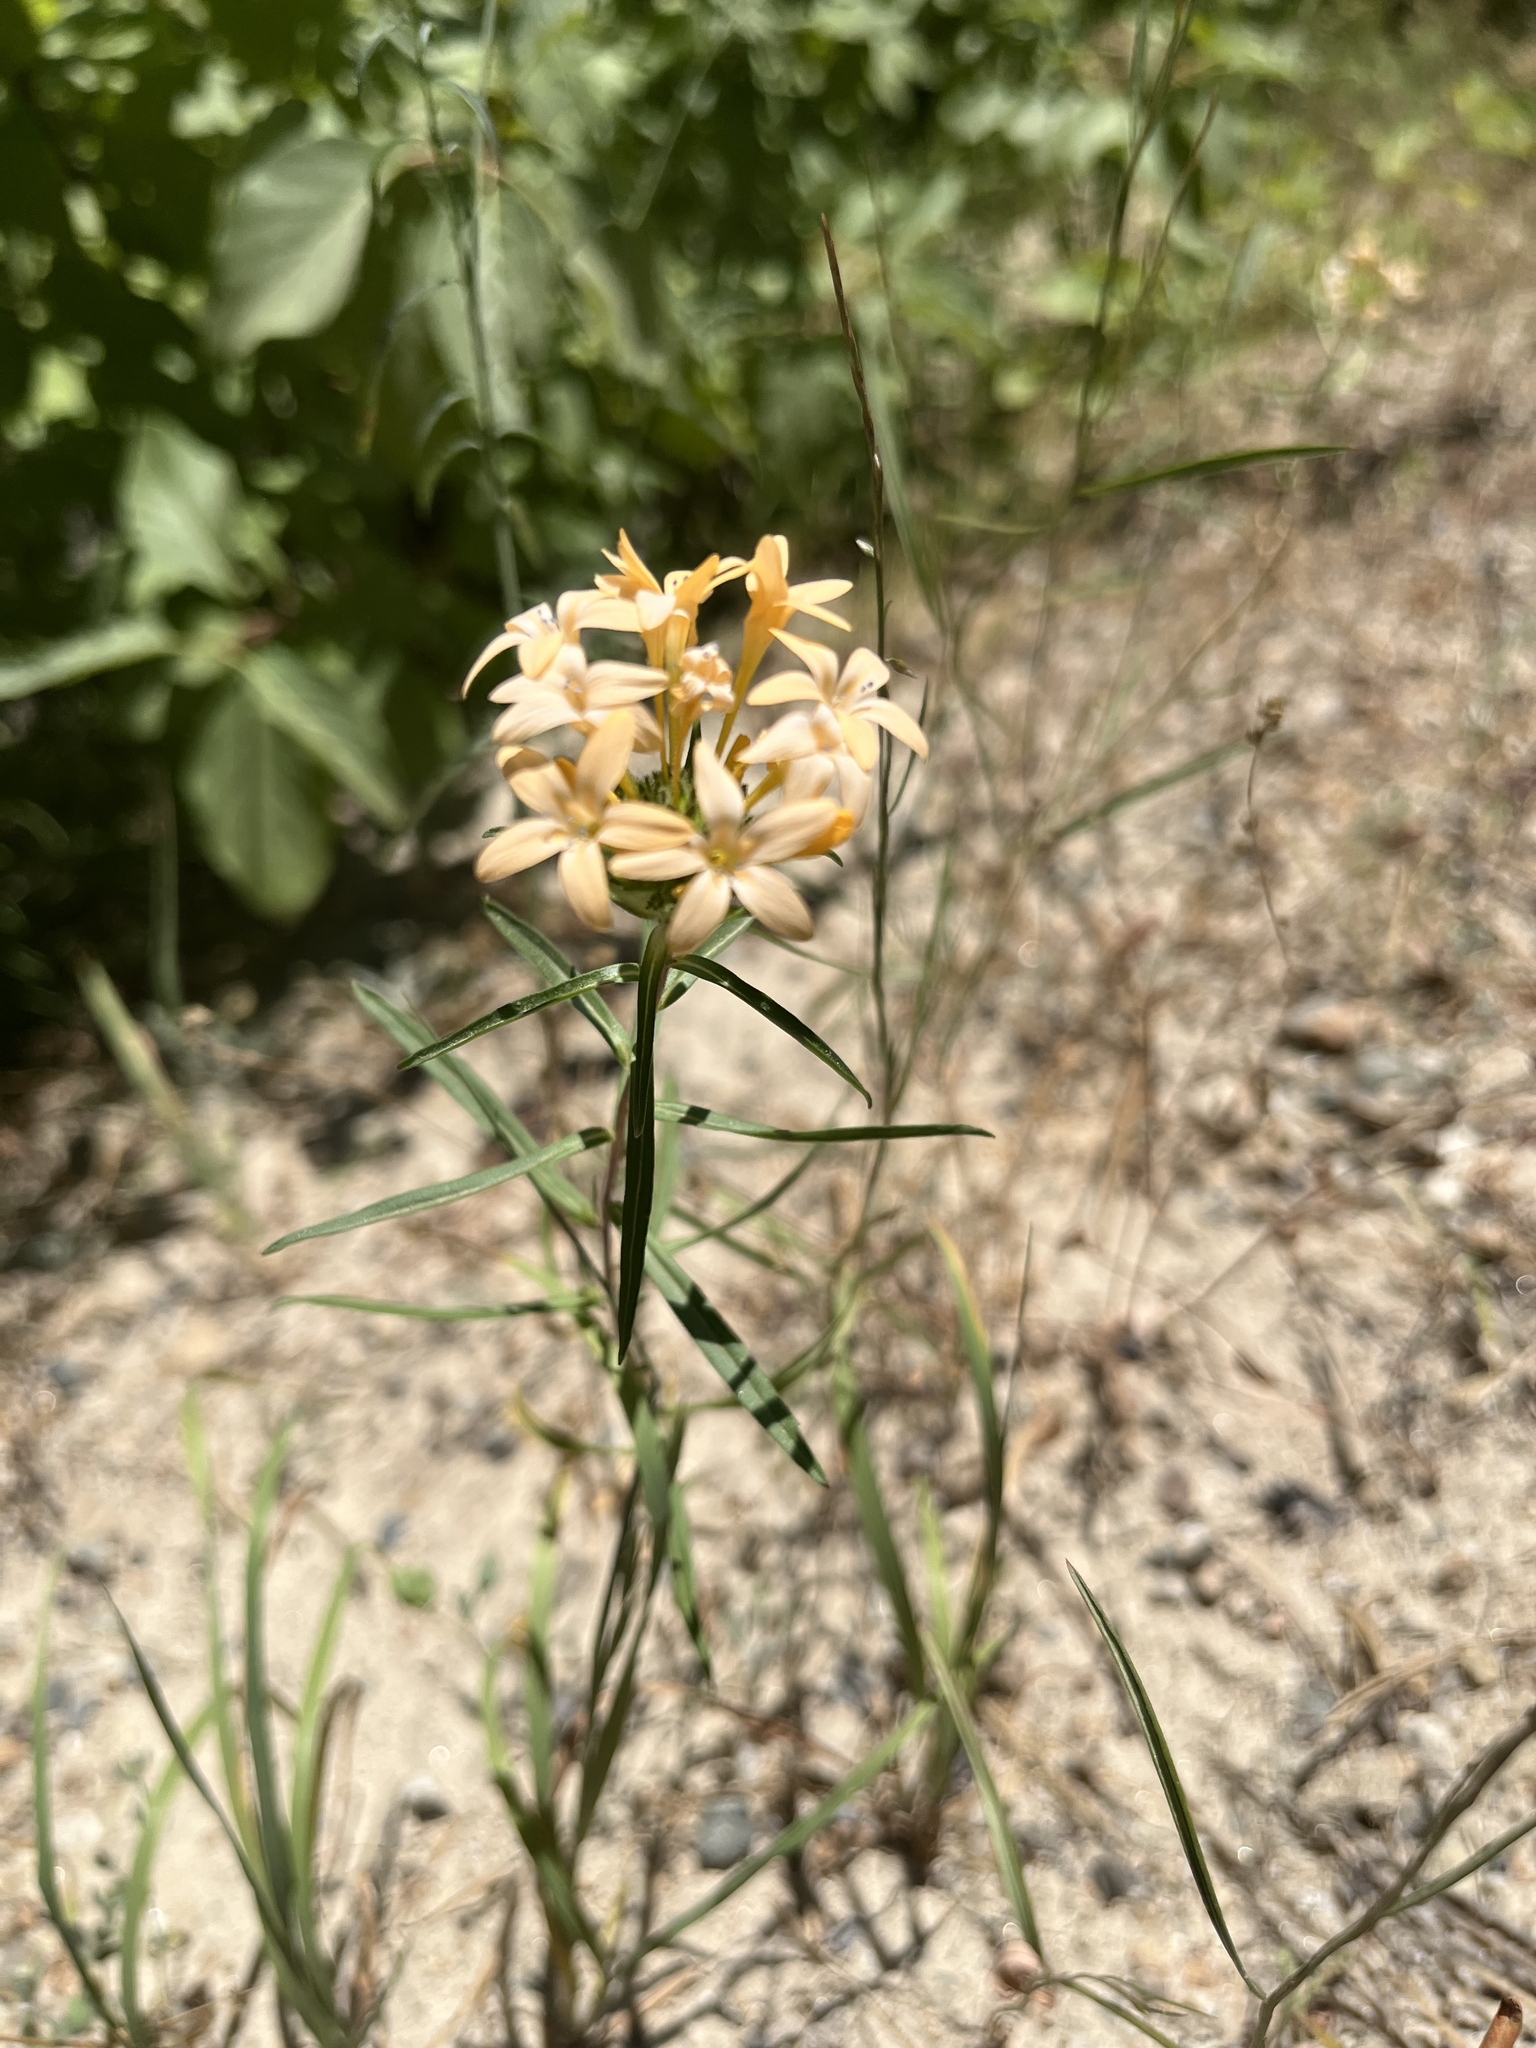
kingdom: Plantae
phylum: Tracheophyta
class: Magnoliopsida
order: Ericales
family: Polemoniaceae
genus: Collomia
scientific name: Collomia grandiflora
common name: California strawflower
